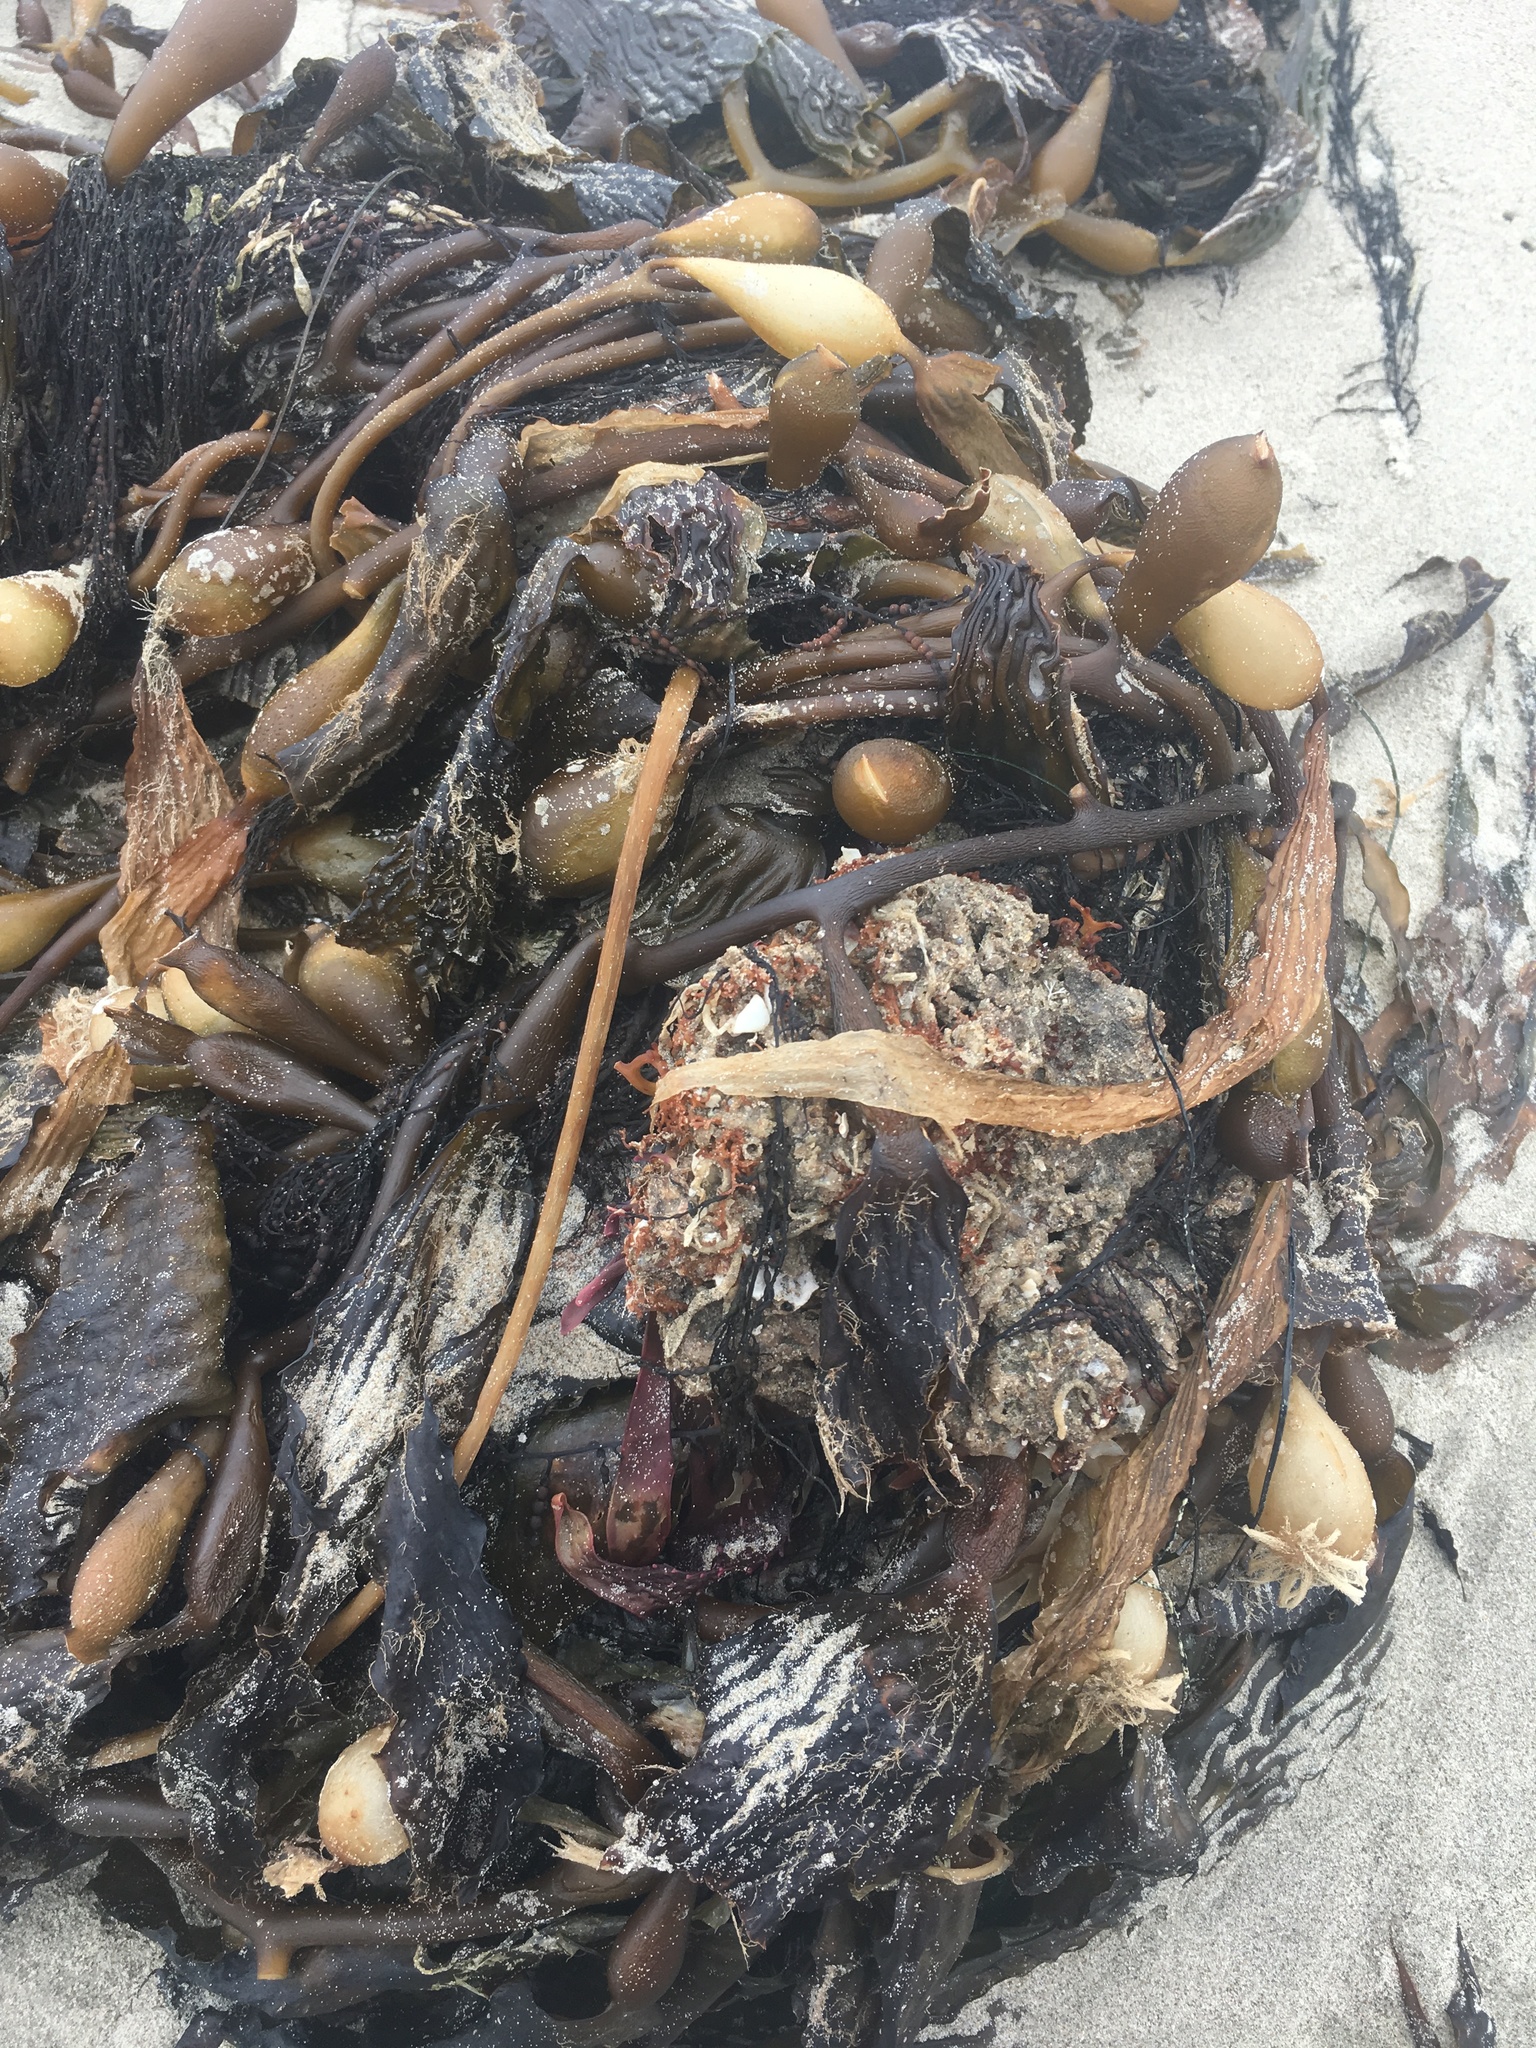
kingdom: Chromista
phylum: Ochrophyta
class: Phaeophyceae
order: Laminariales
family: Laminariaceae
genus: Macrocystis
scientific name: Macrocystis pyrifera
